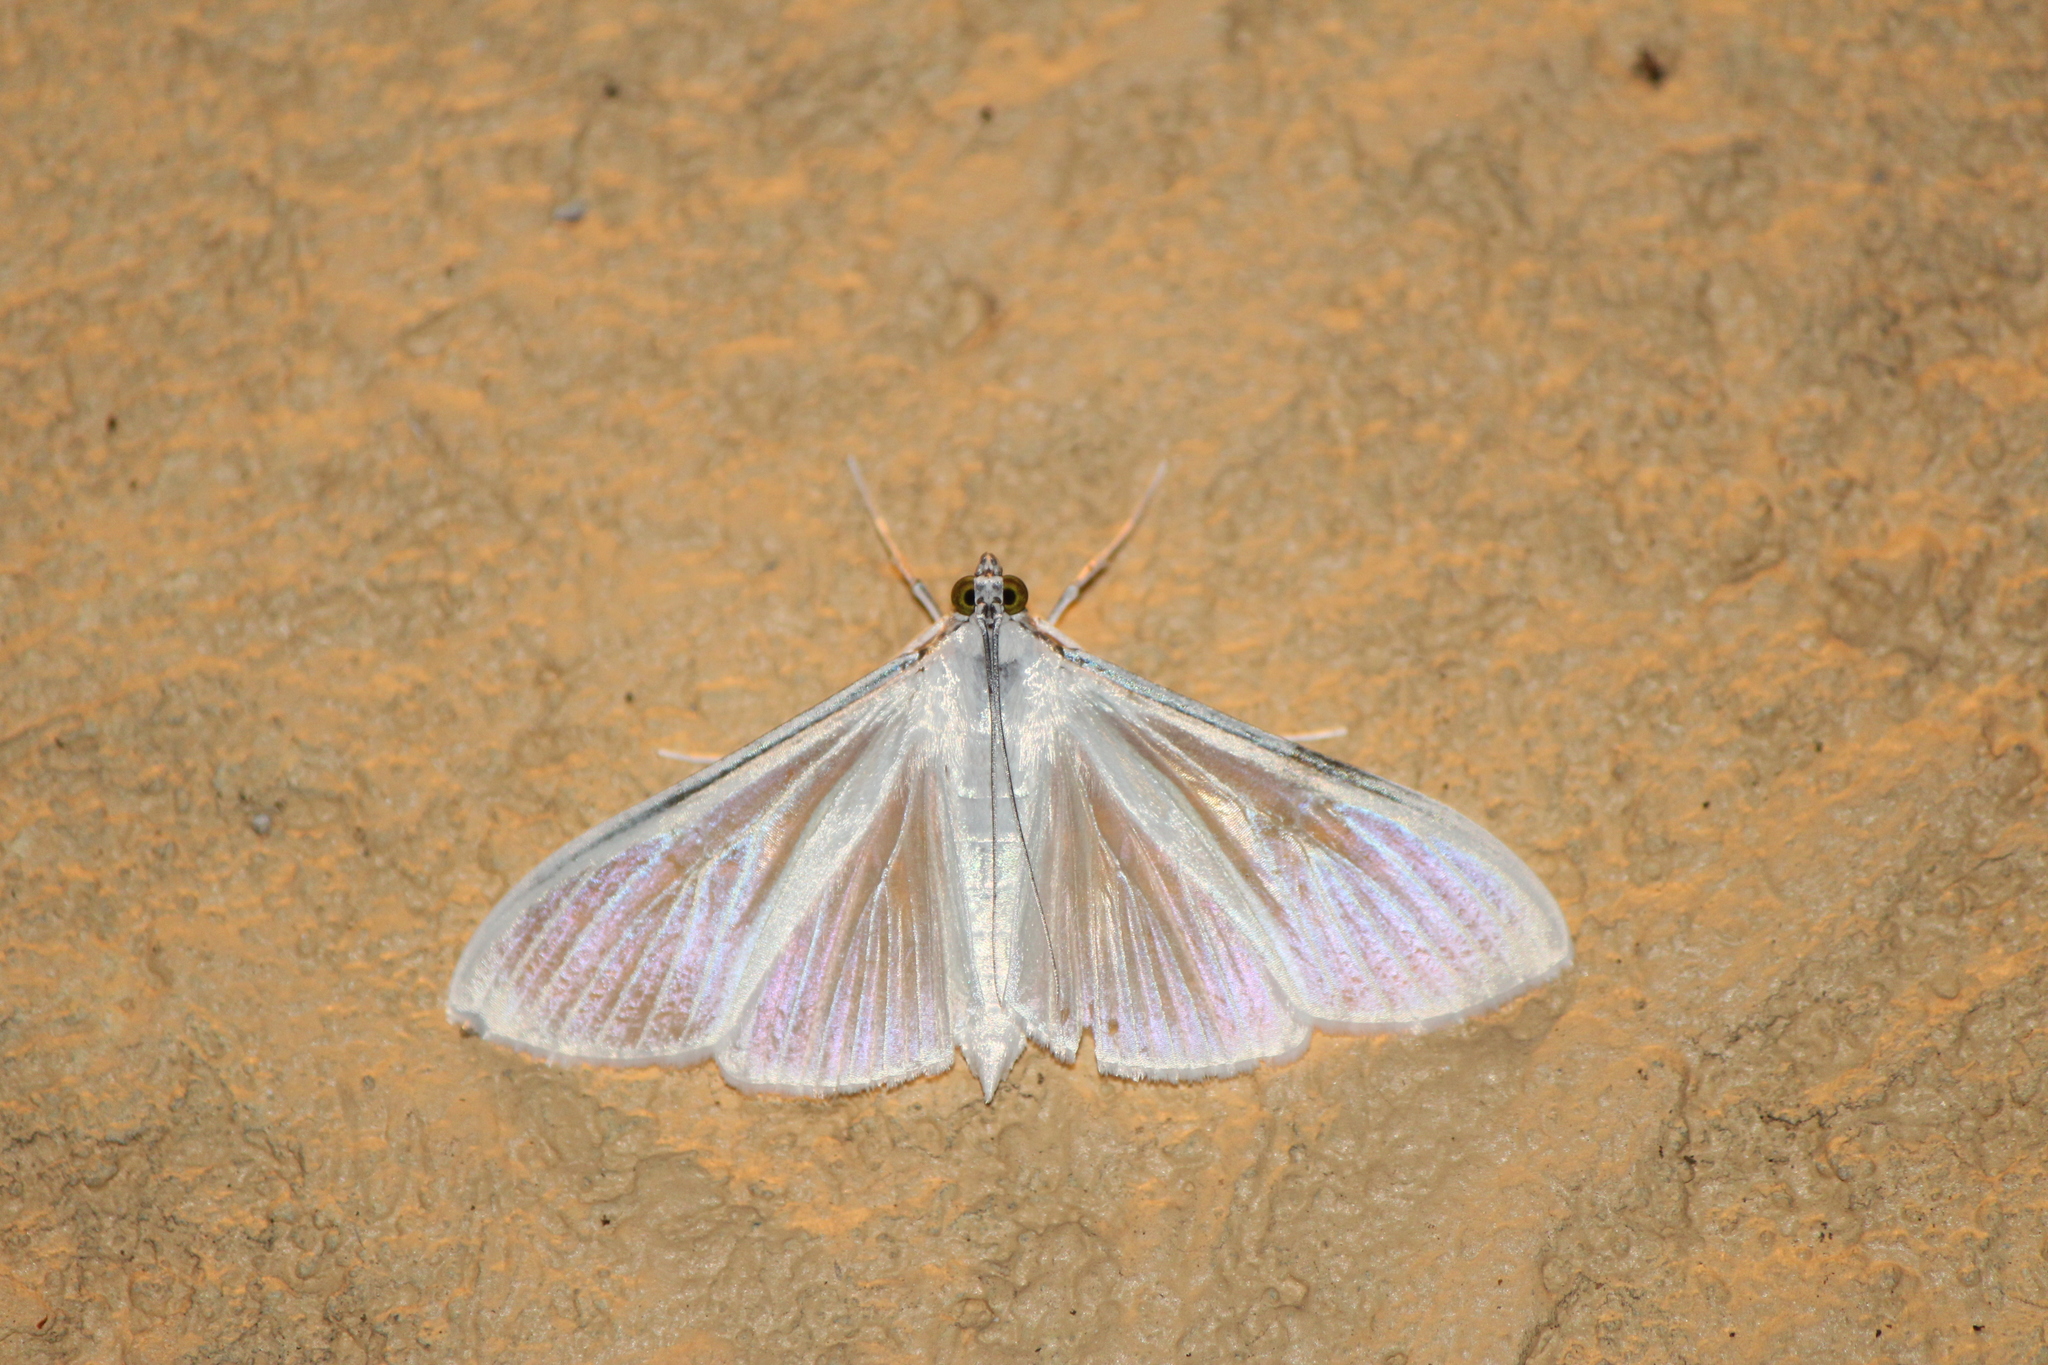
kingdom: Animalia
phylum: Arthropoda
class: Insecta
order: Lepidoptera
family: Crambidae
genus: Palpita
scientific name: Palpita flegia
